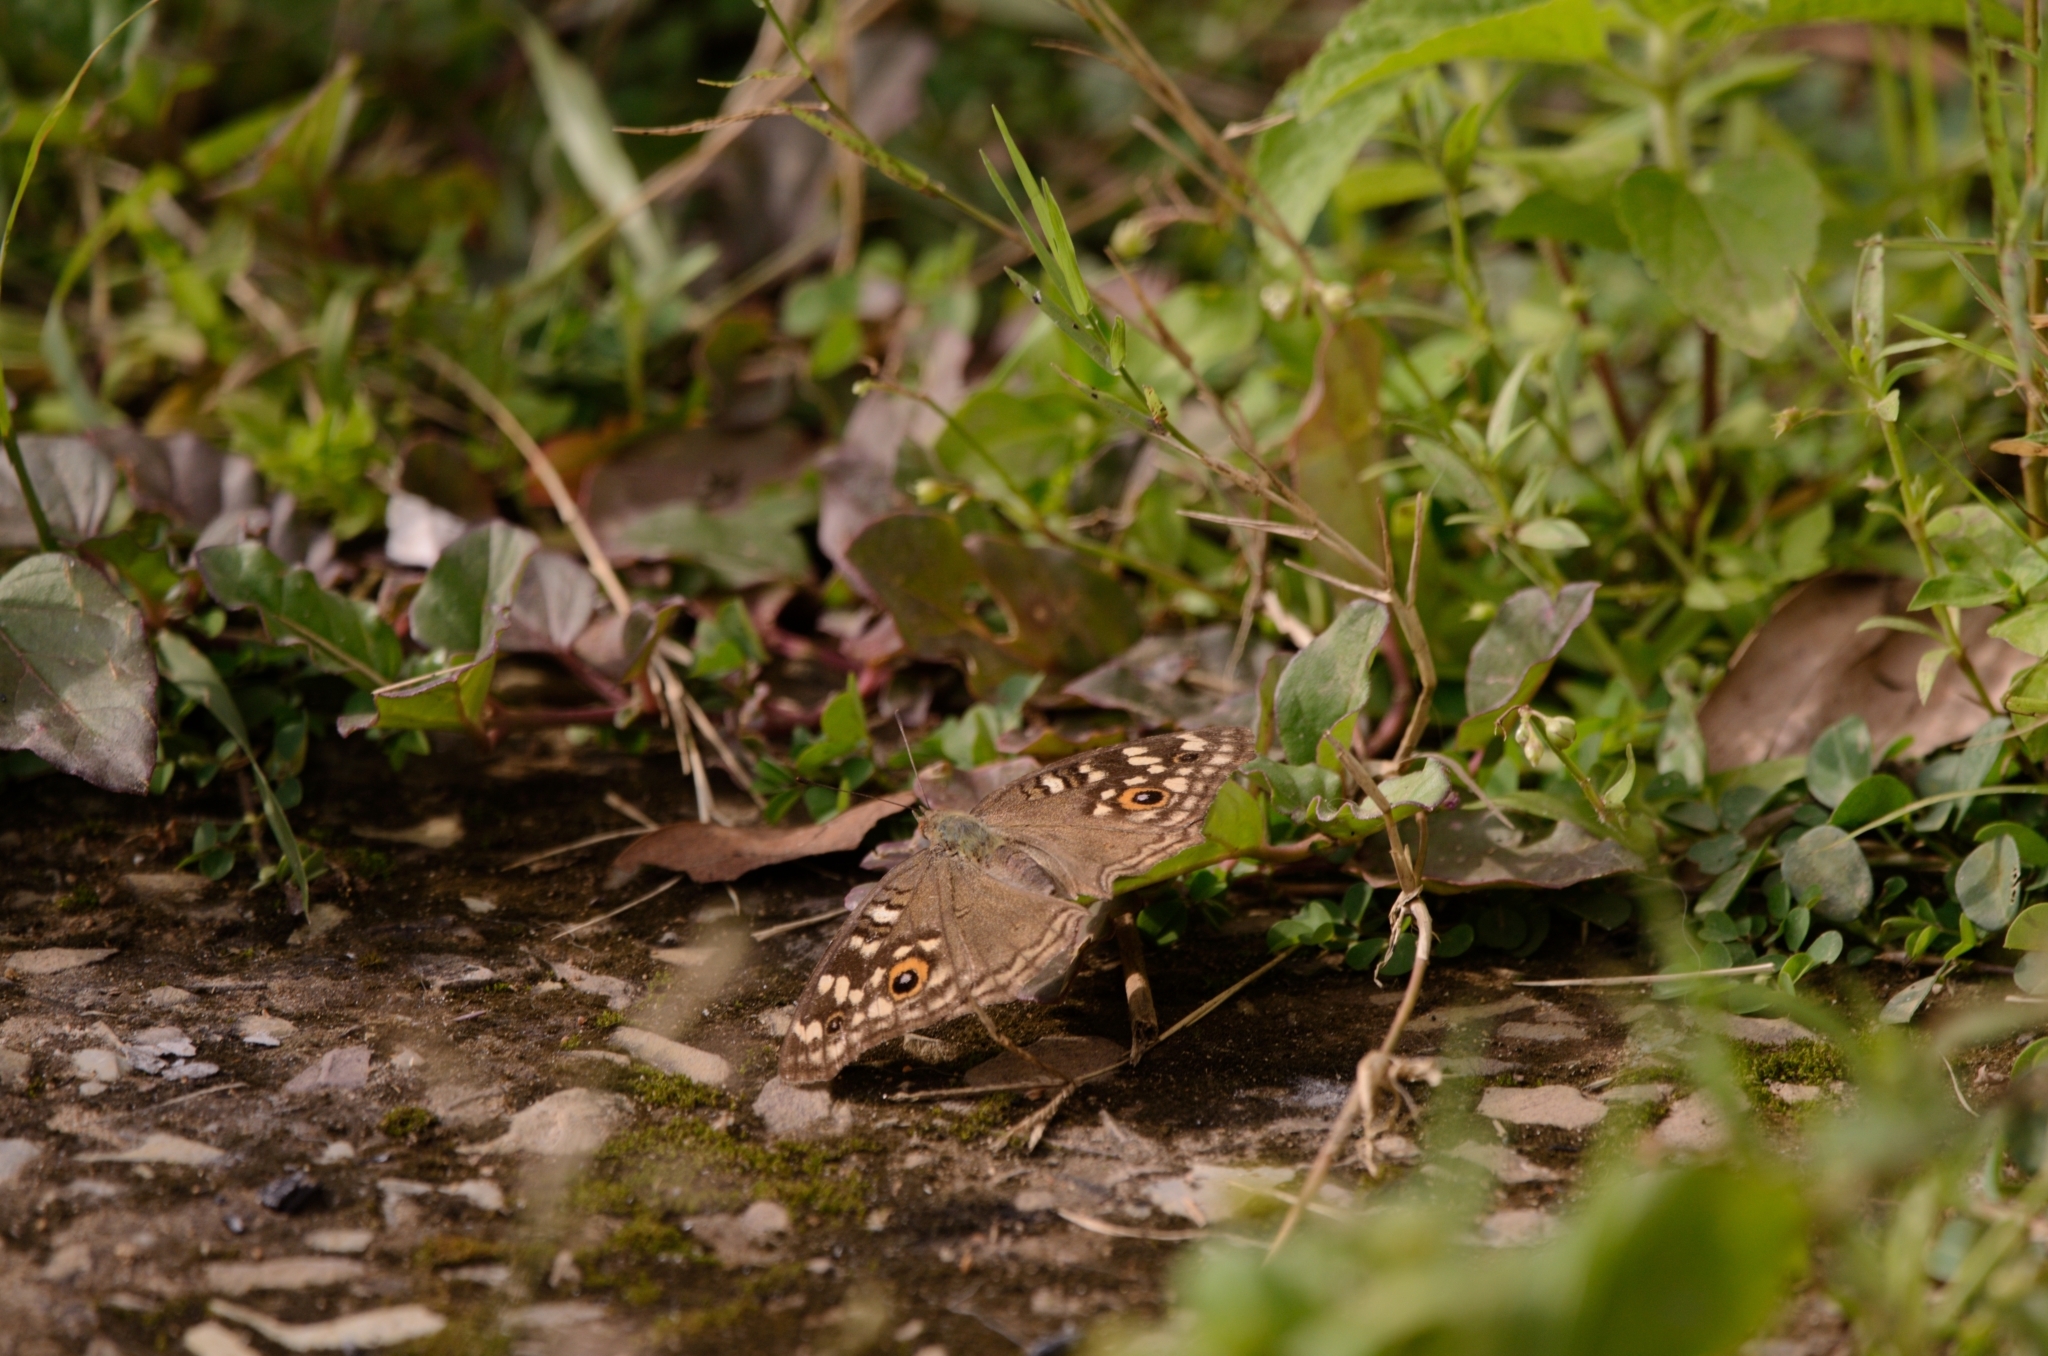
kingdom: Animalia
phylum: Arthropoda
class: Insecta
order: Lepidoptera
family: Nymphalidae
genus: Junonia
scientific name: Junonia lemonias
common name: Lemon pansy
